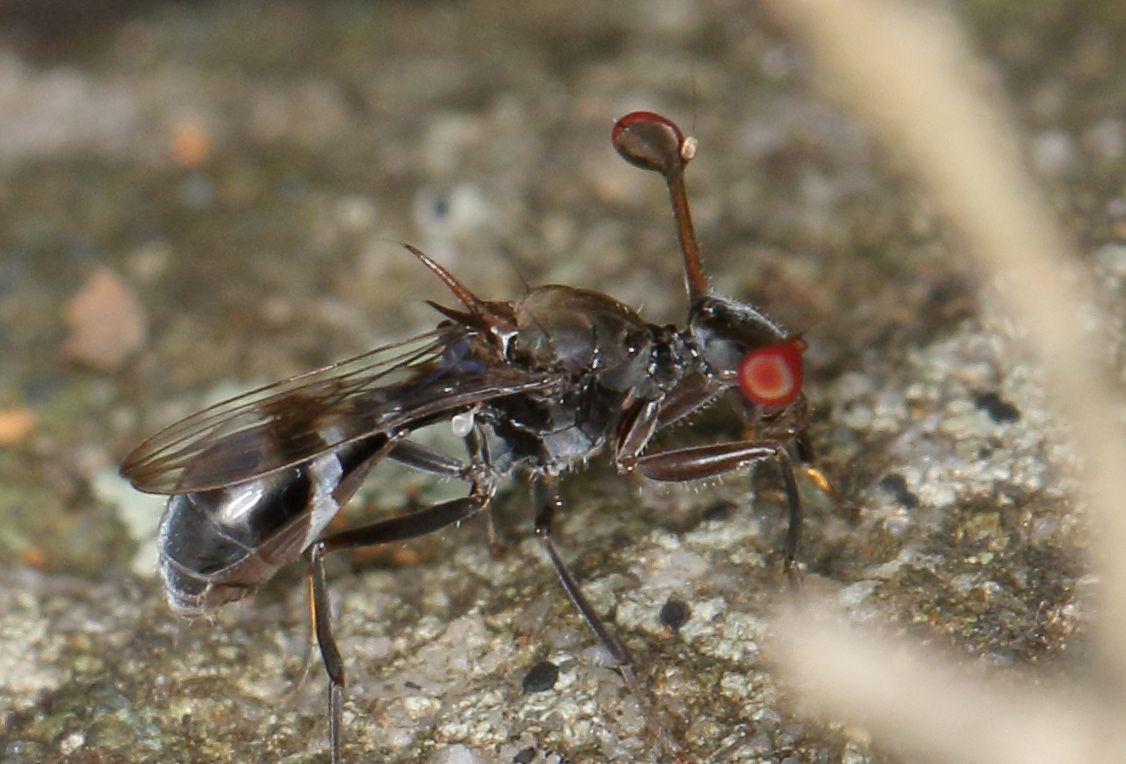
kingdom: Animalia
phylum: Arthropoda
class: Insecta
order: Diptera
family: Diopsidae
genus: Chaetodiopsis
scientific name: Chaetodiopsis
